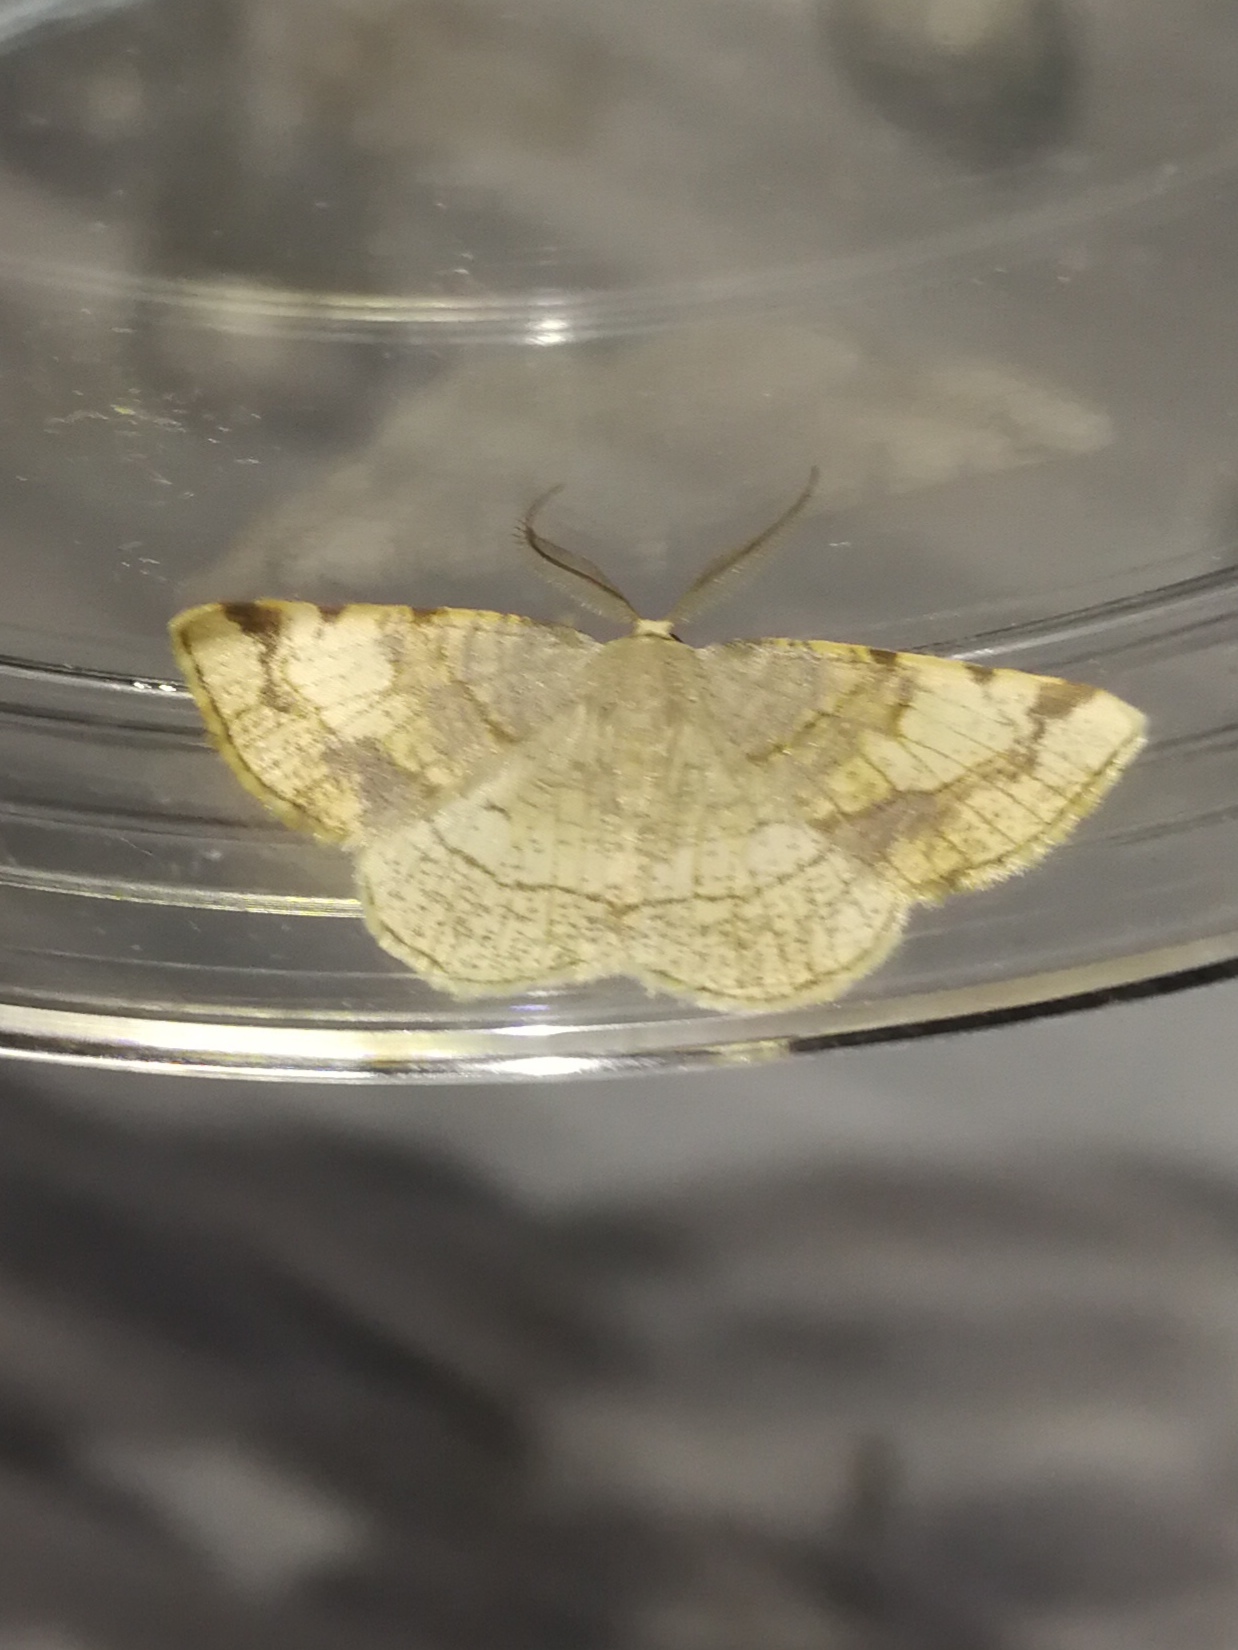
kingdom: Animalia
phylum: Arthropoda
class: Insecta
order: Lepidoptera
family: Geometridae
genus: Stegania
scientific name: Stegania trimaculata
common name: Dorset cream wave
